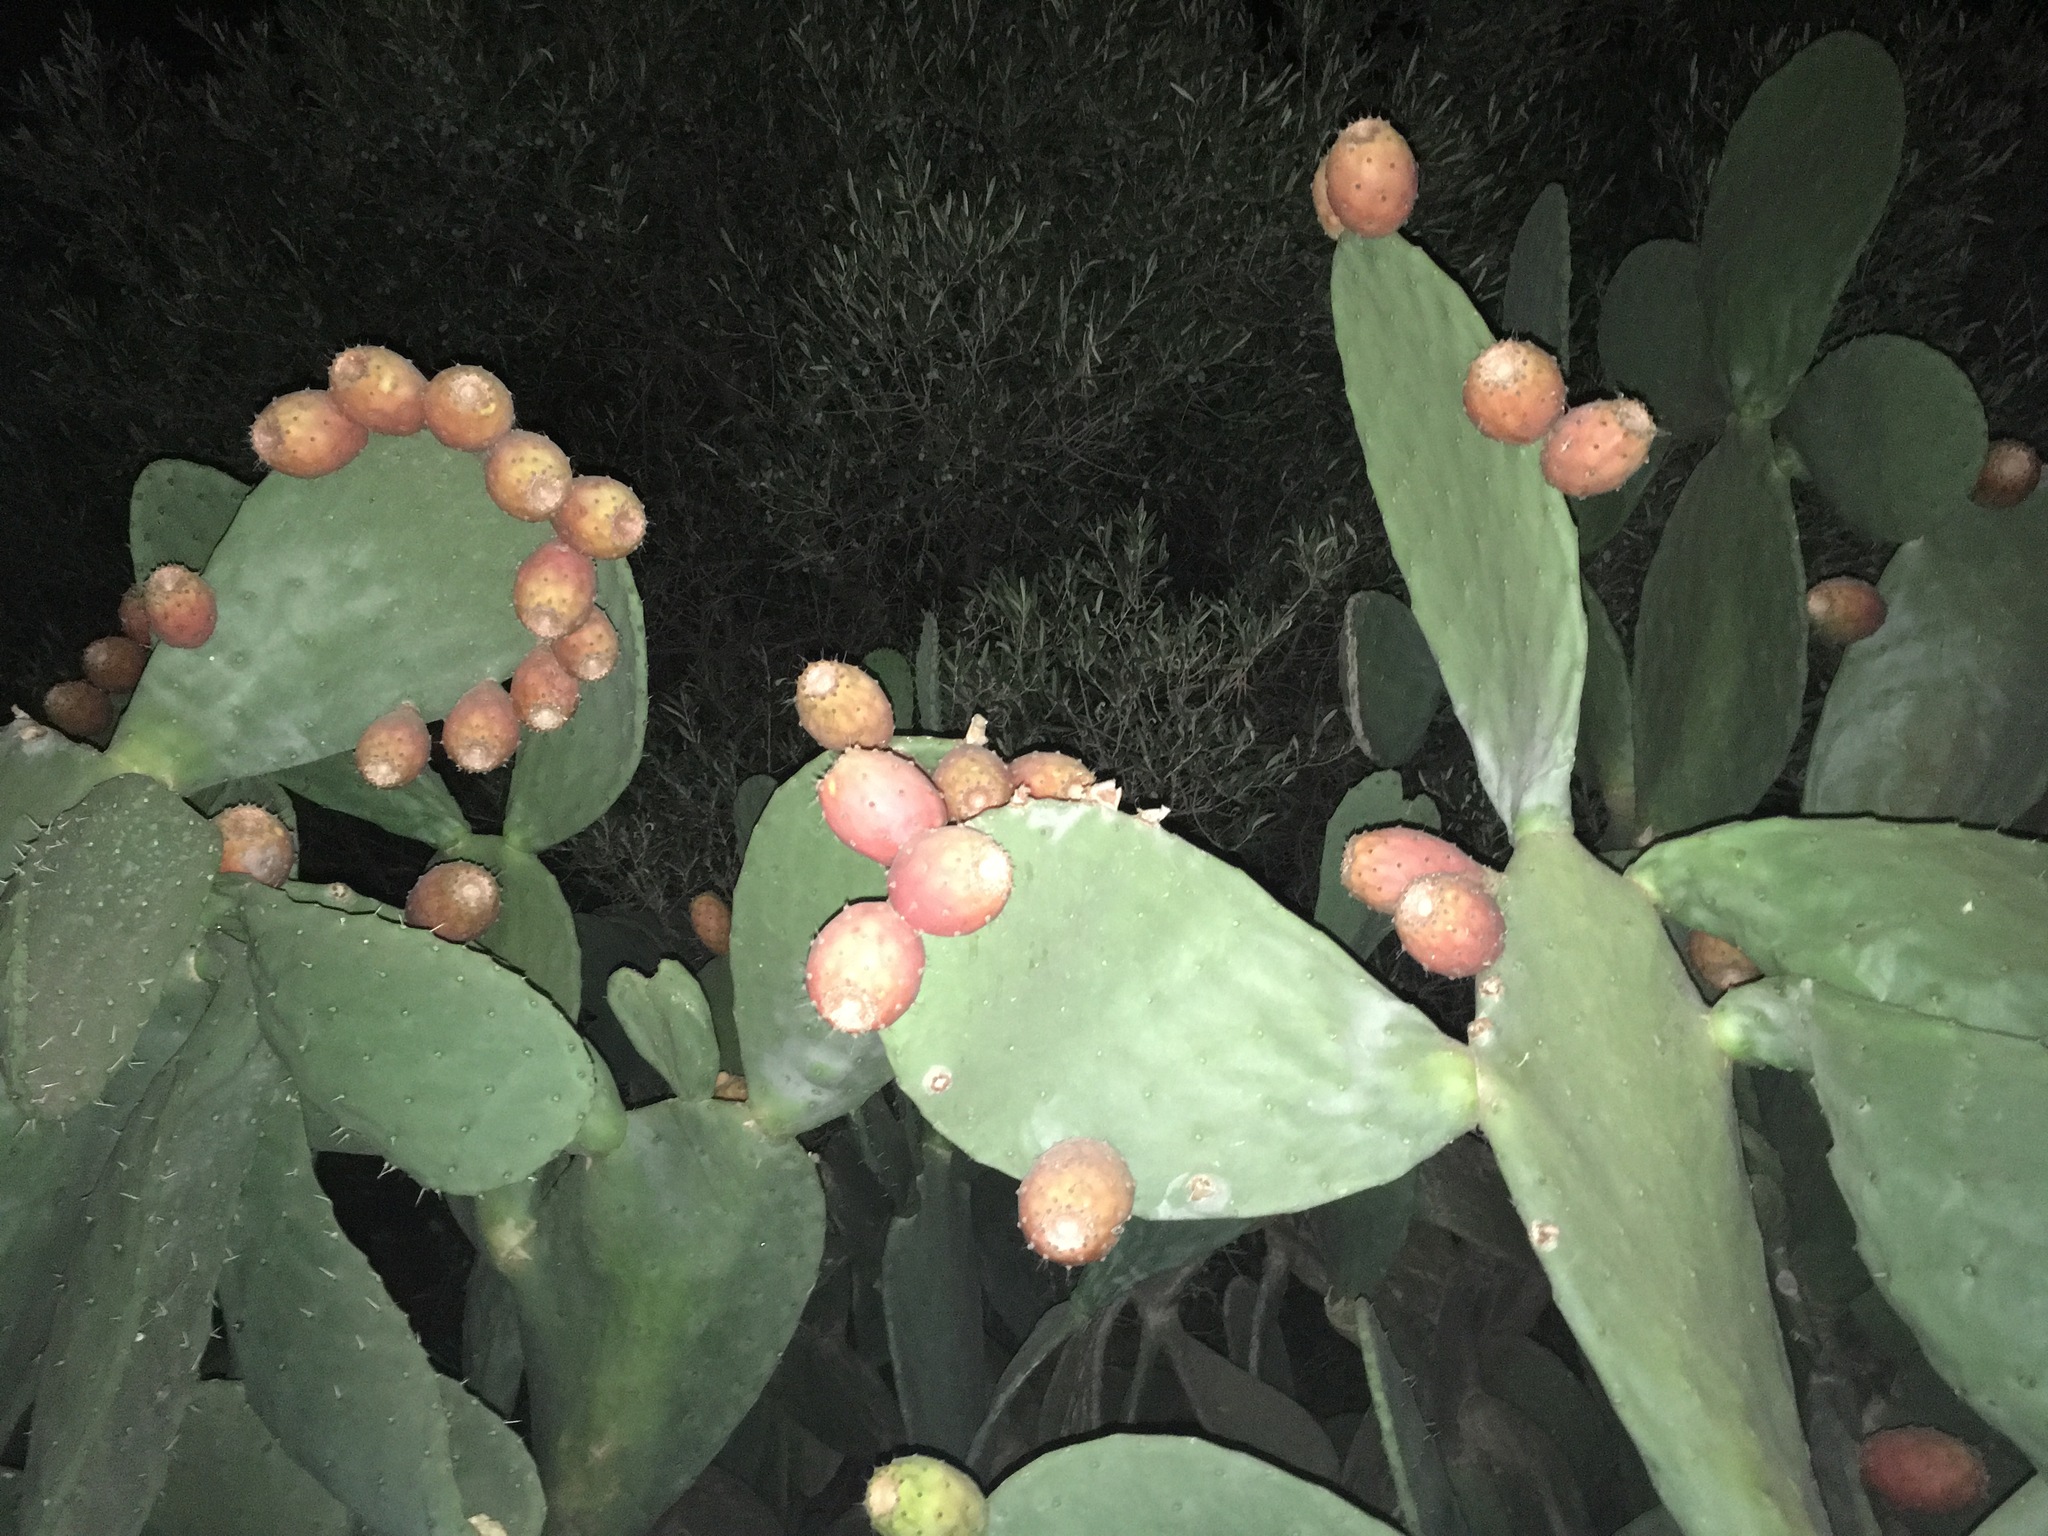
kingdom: Plantae
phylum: Tracheophyta
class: Magnoliopsida
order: Caryophyllales
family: Cactaceae
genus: Opuntia
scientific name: Opuntia ficus-indica
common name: Barbary fig
